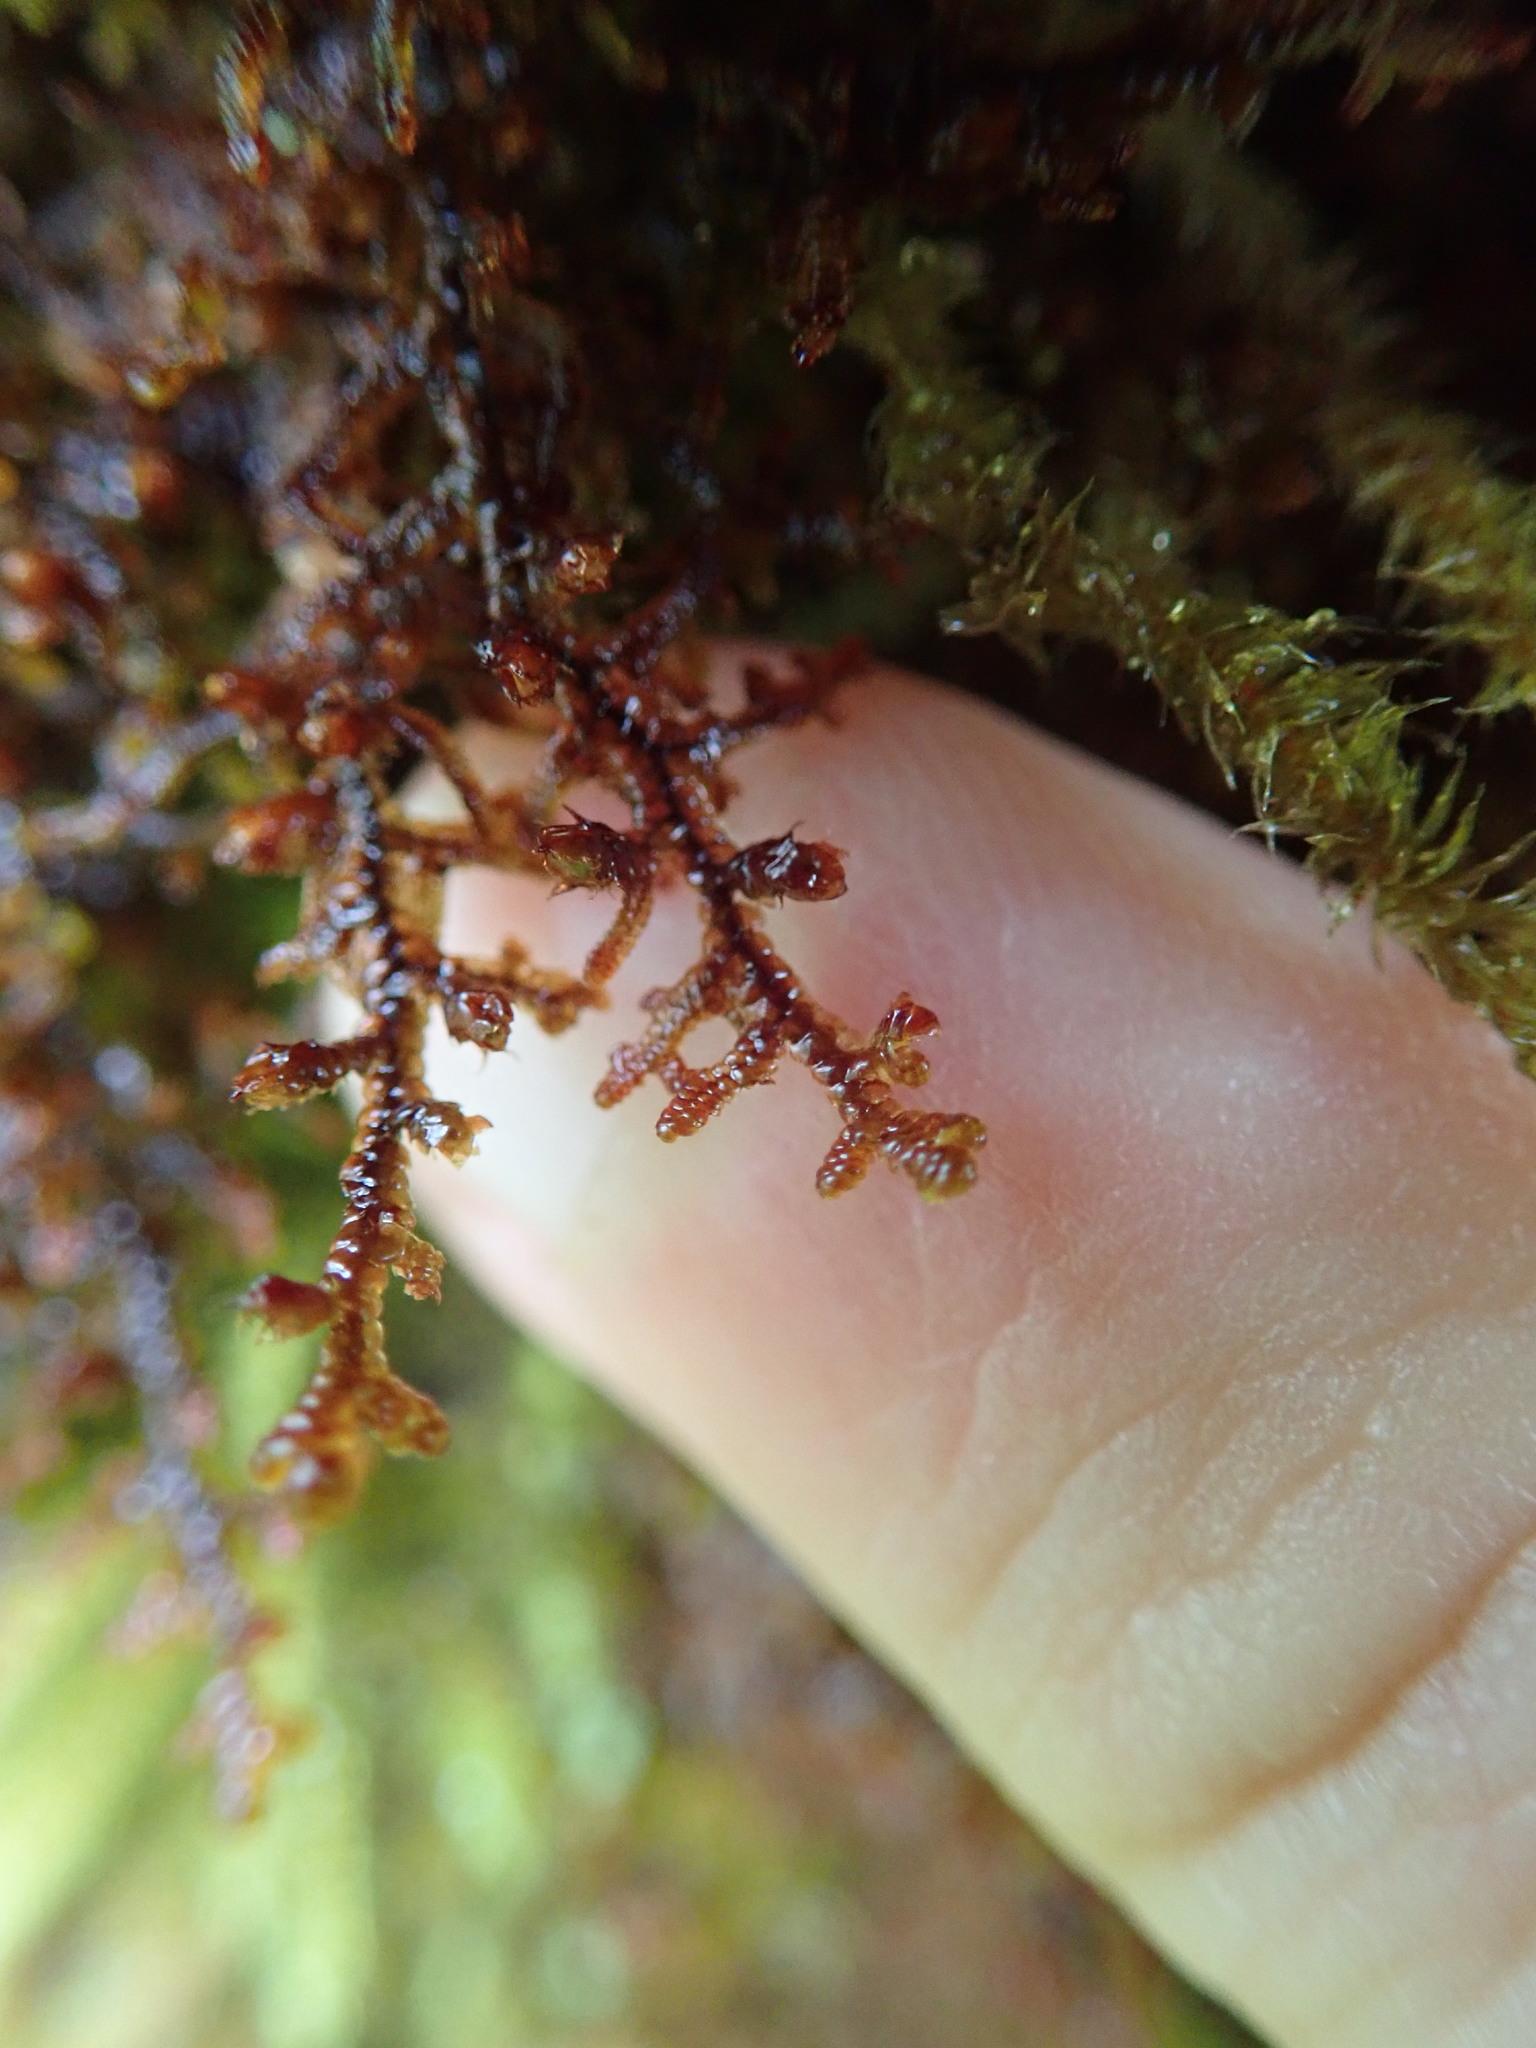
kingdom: Plantae
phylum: Marchantiophyta
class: Jungermanniopsida
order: Porellales
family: Frullaniaceae
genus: Frullania
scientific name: Frullania nisquallensis
